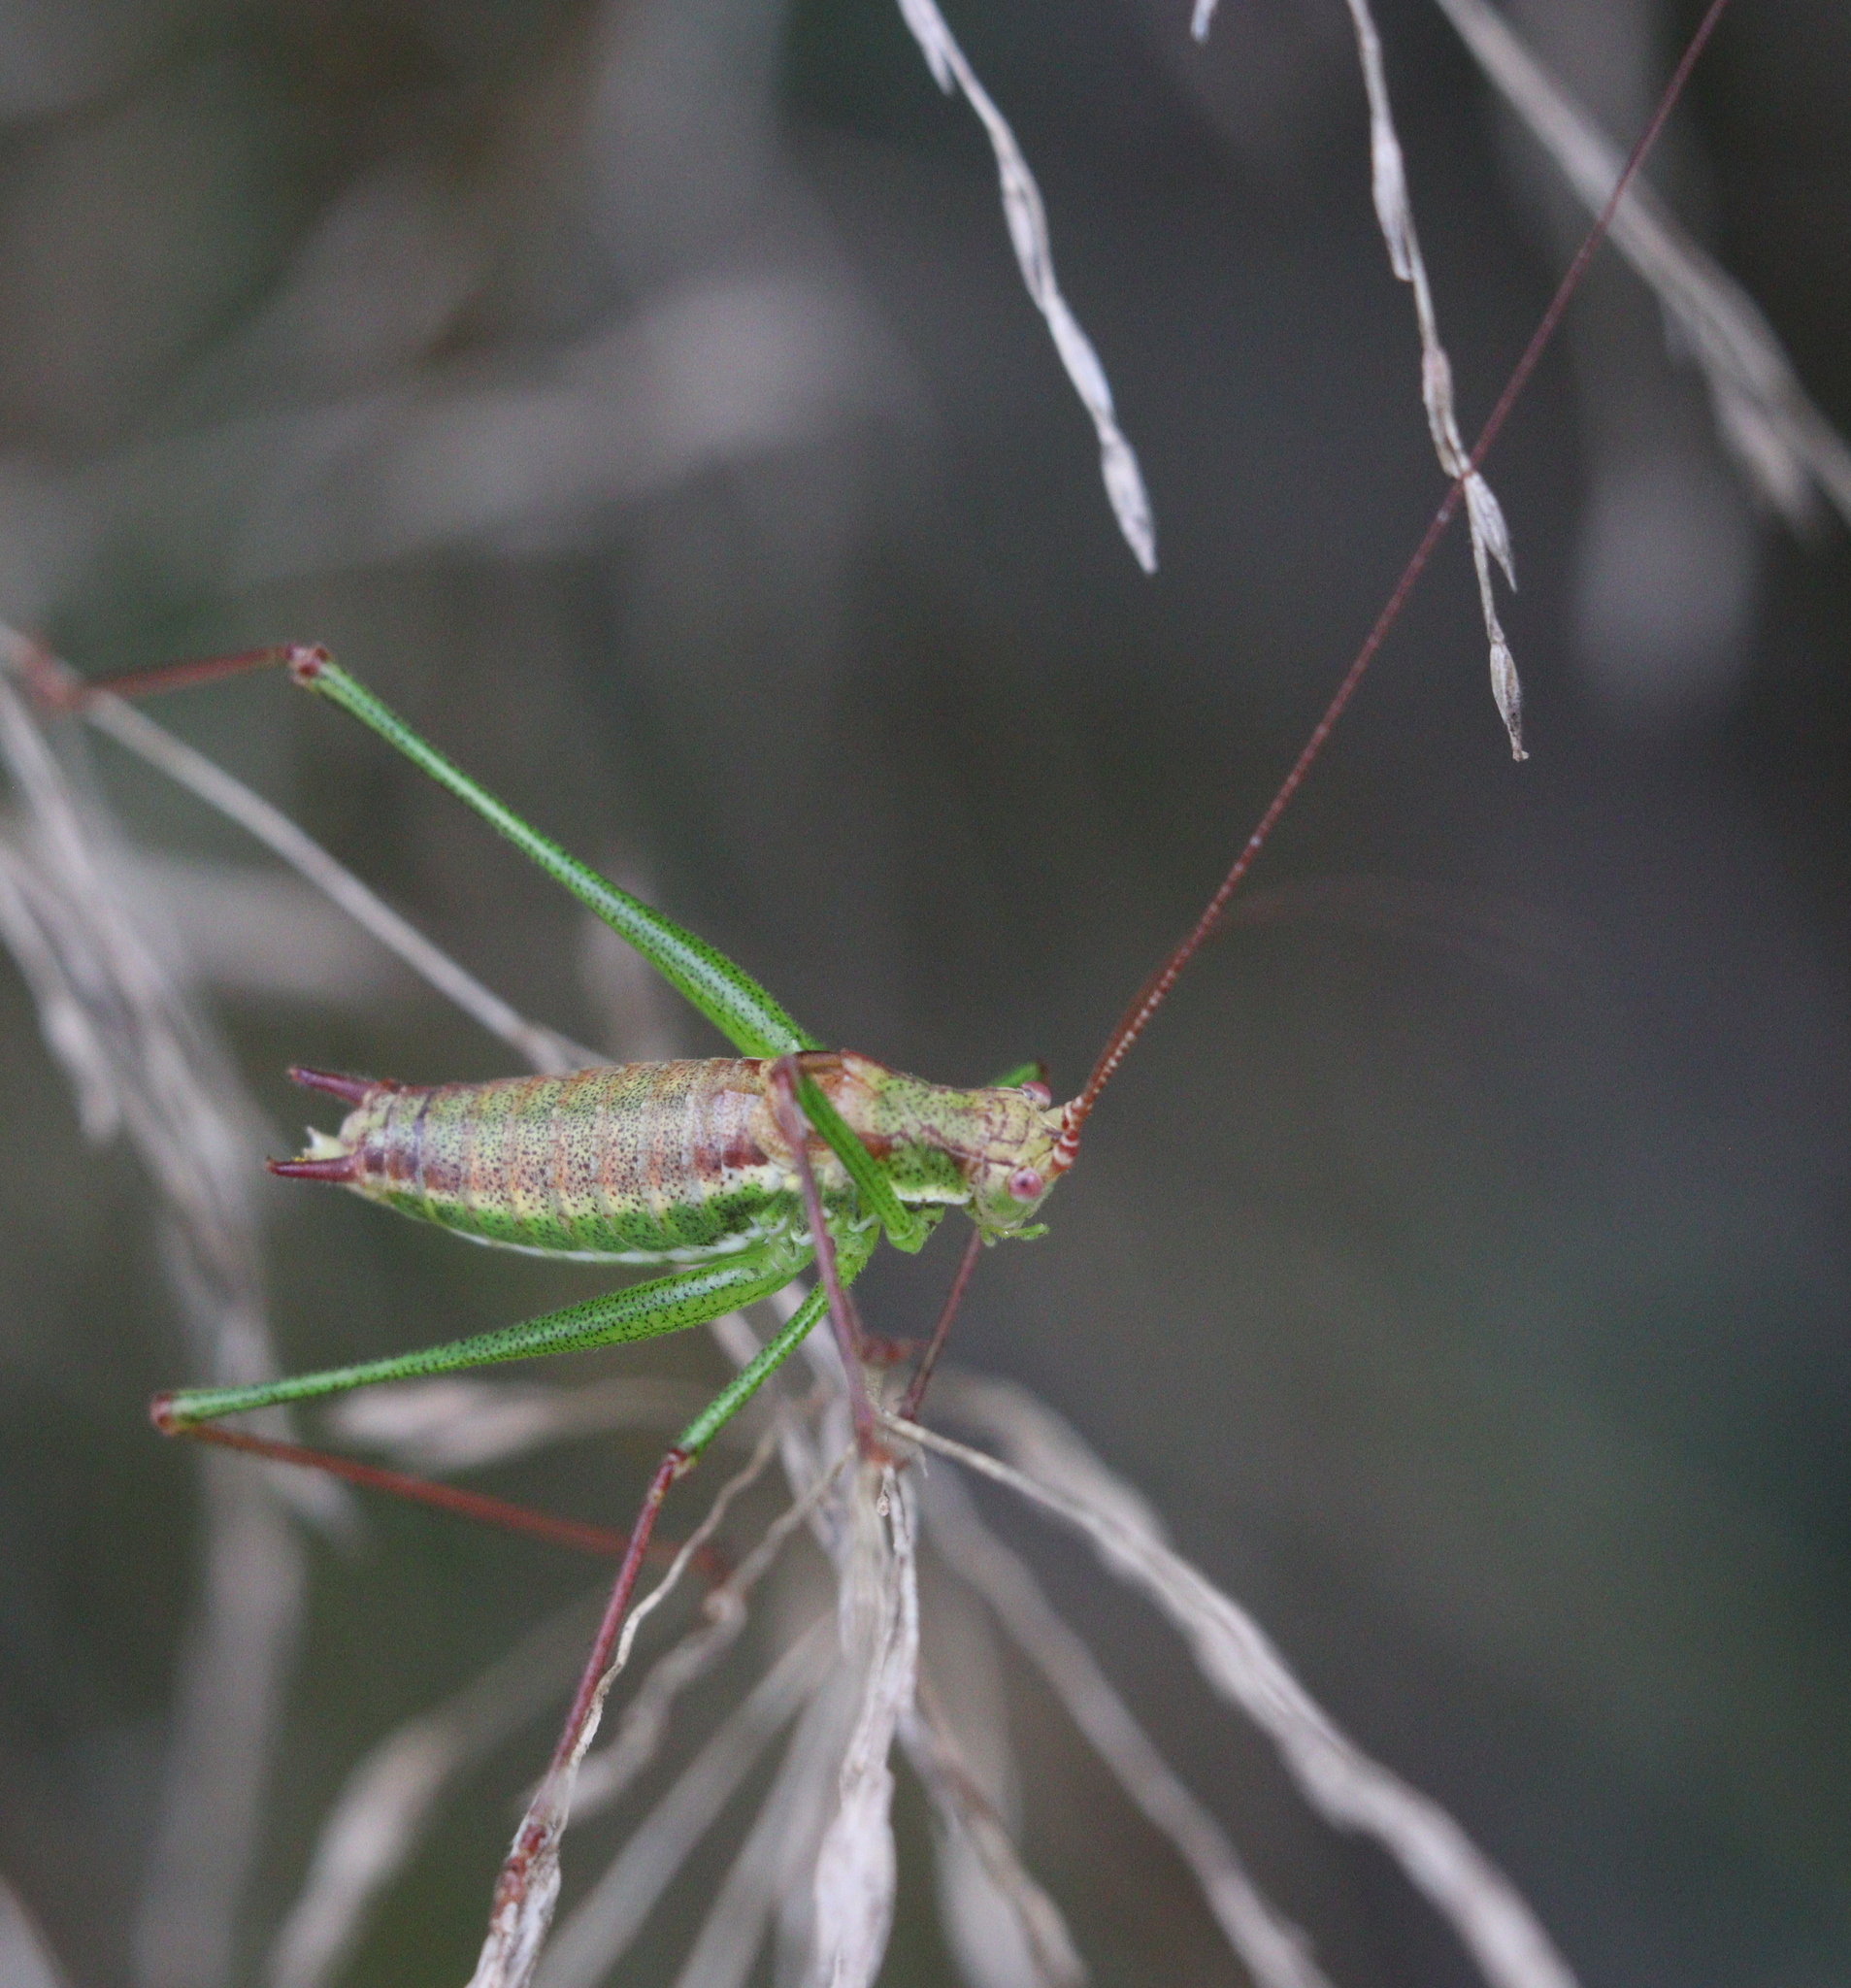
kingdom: Animalia
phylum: Arthropoda
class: Insecta
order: Orthoptera
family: Tettigoniidae
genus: Leptophyes
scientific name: Leptophyes albovittata
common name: Striped bush-cricket
